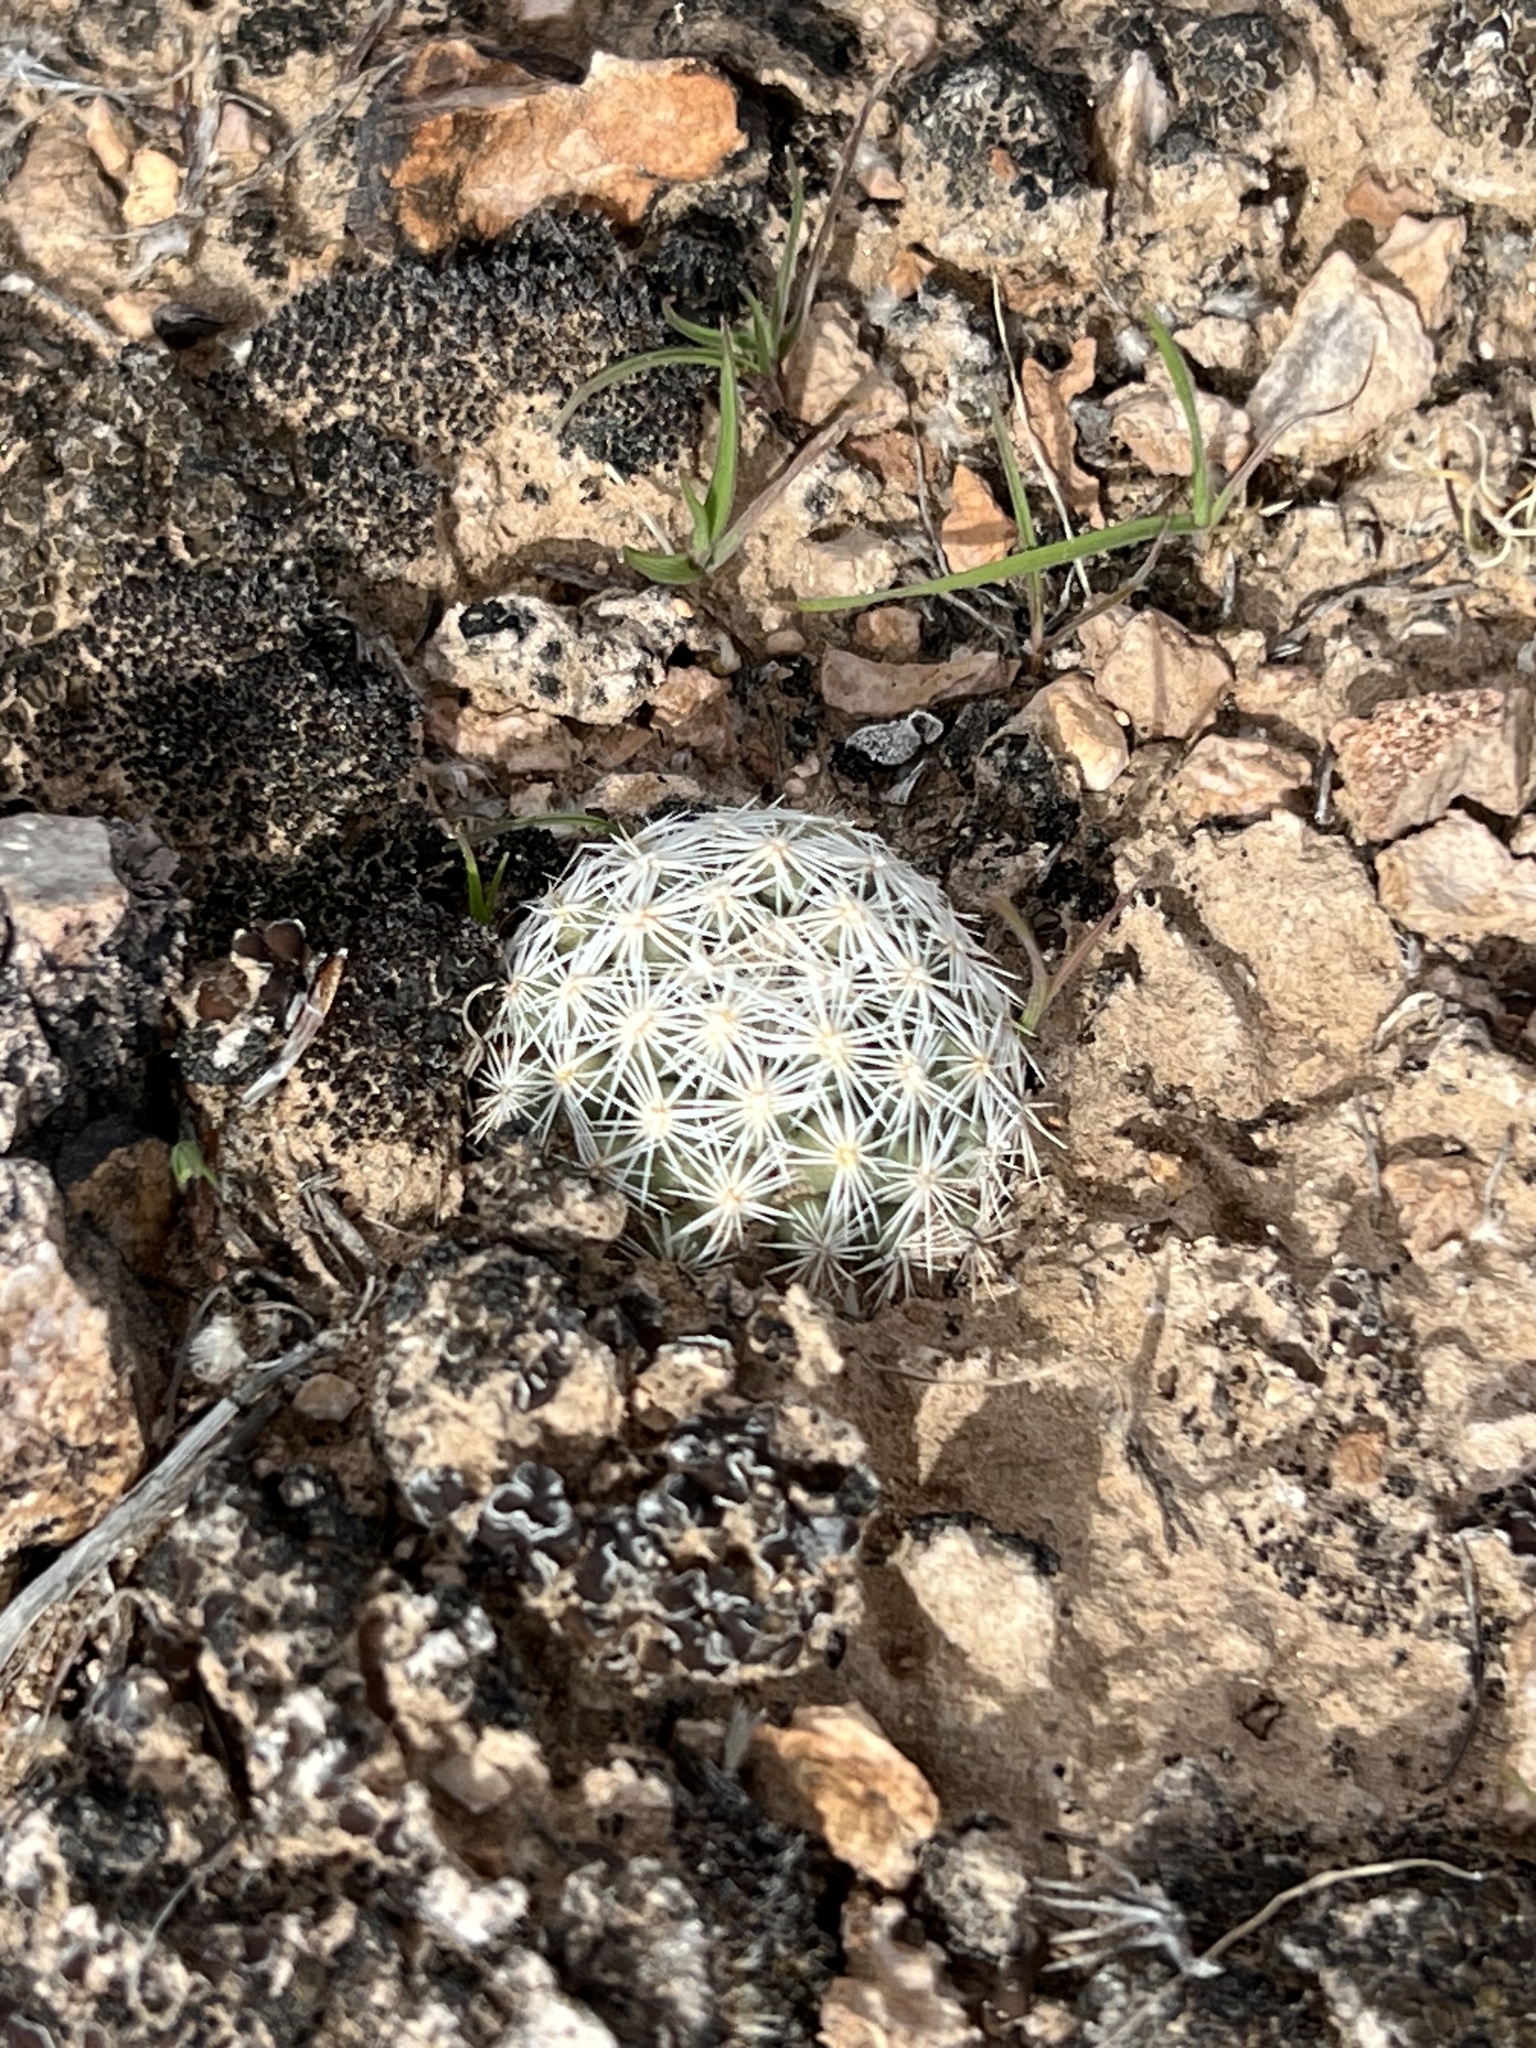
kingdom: Plantae
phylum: Tracheophyta
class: Magnoliopsida
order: Caryophyllales
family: Cactaceae
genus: Pelecyphora
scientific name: Pelecyphora dasyacantha
